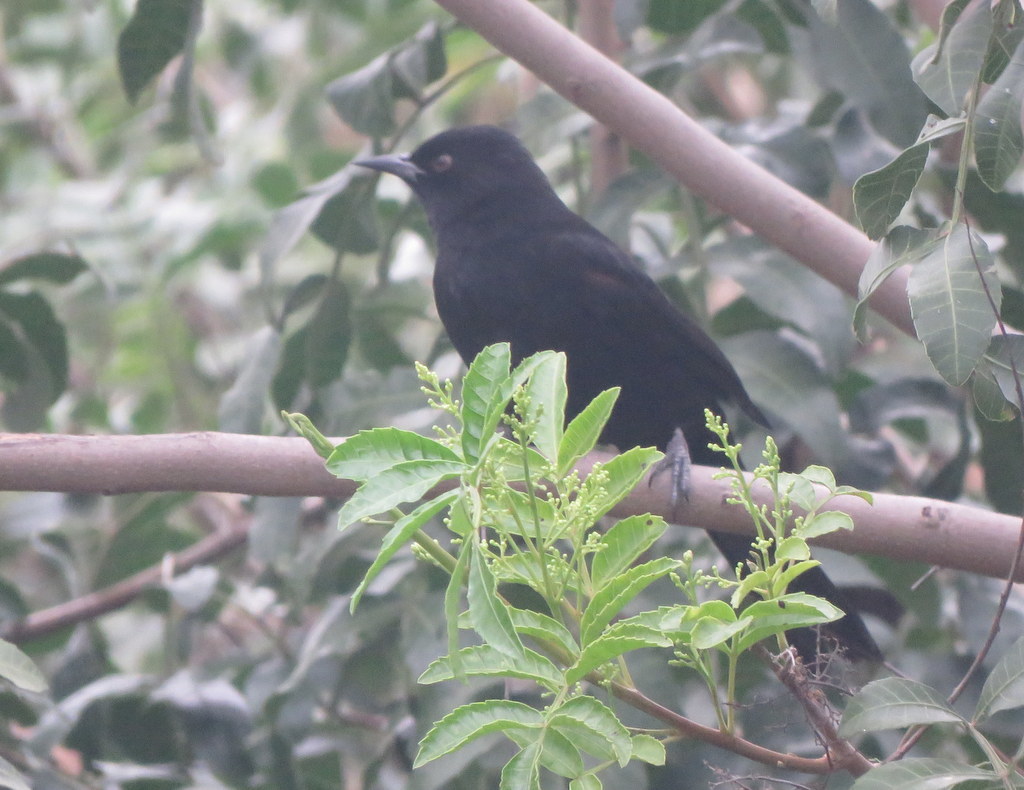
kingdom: Animalia
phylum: Chordata
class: Aves
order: Passeriformes
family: Icteridae
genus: Icterus
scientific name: Icterus cayanensis
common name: Epaulet oriole
